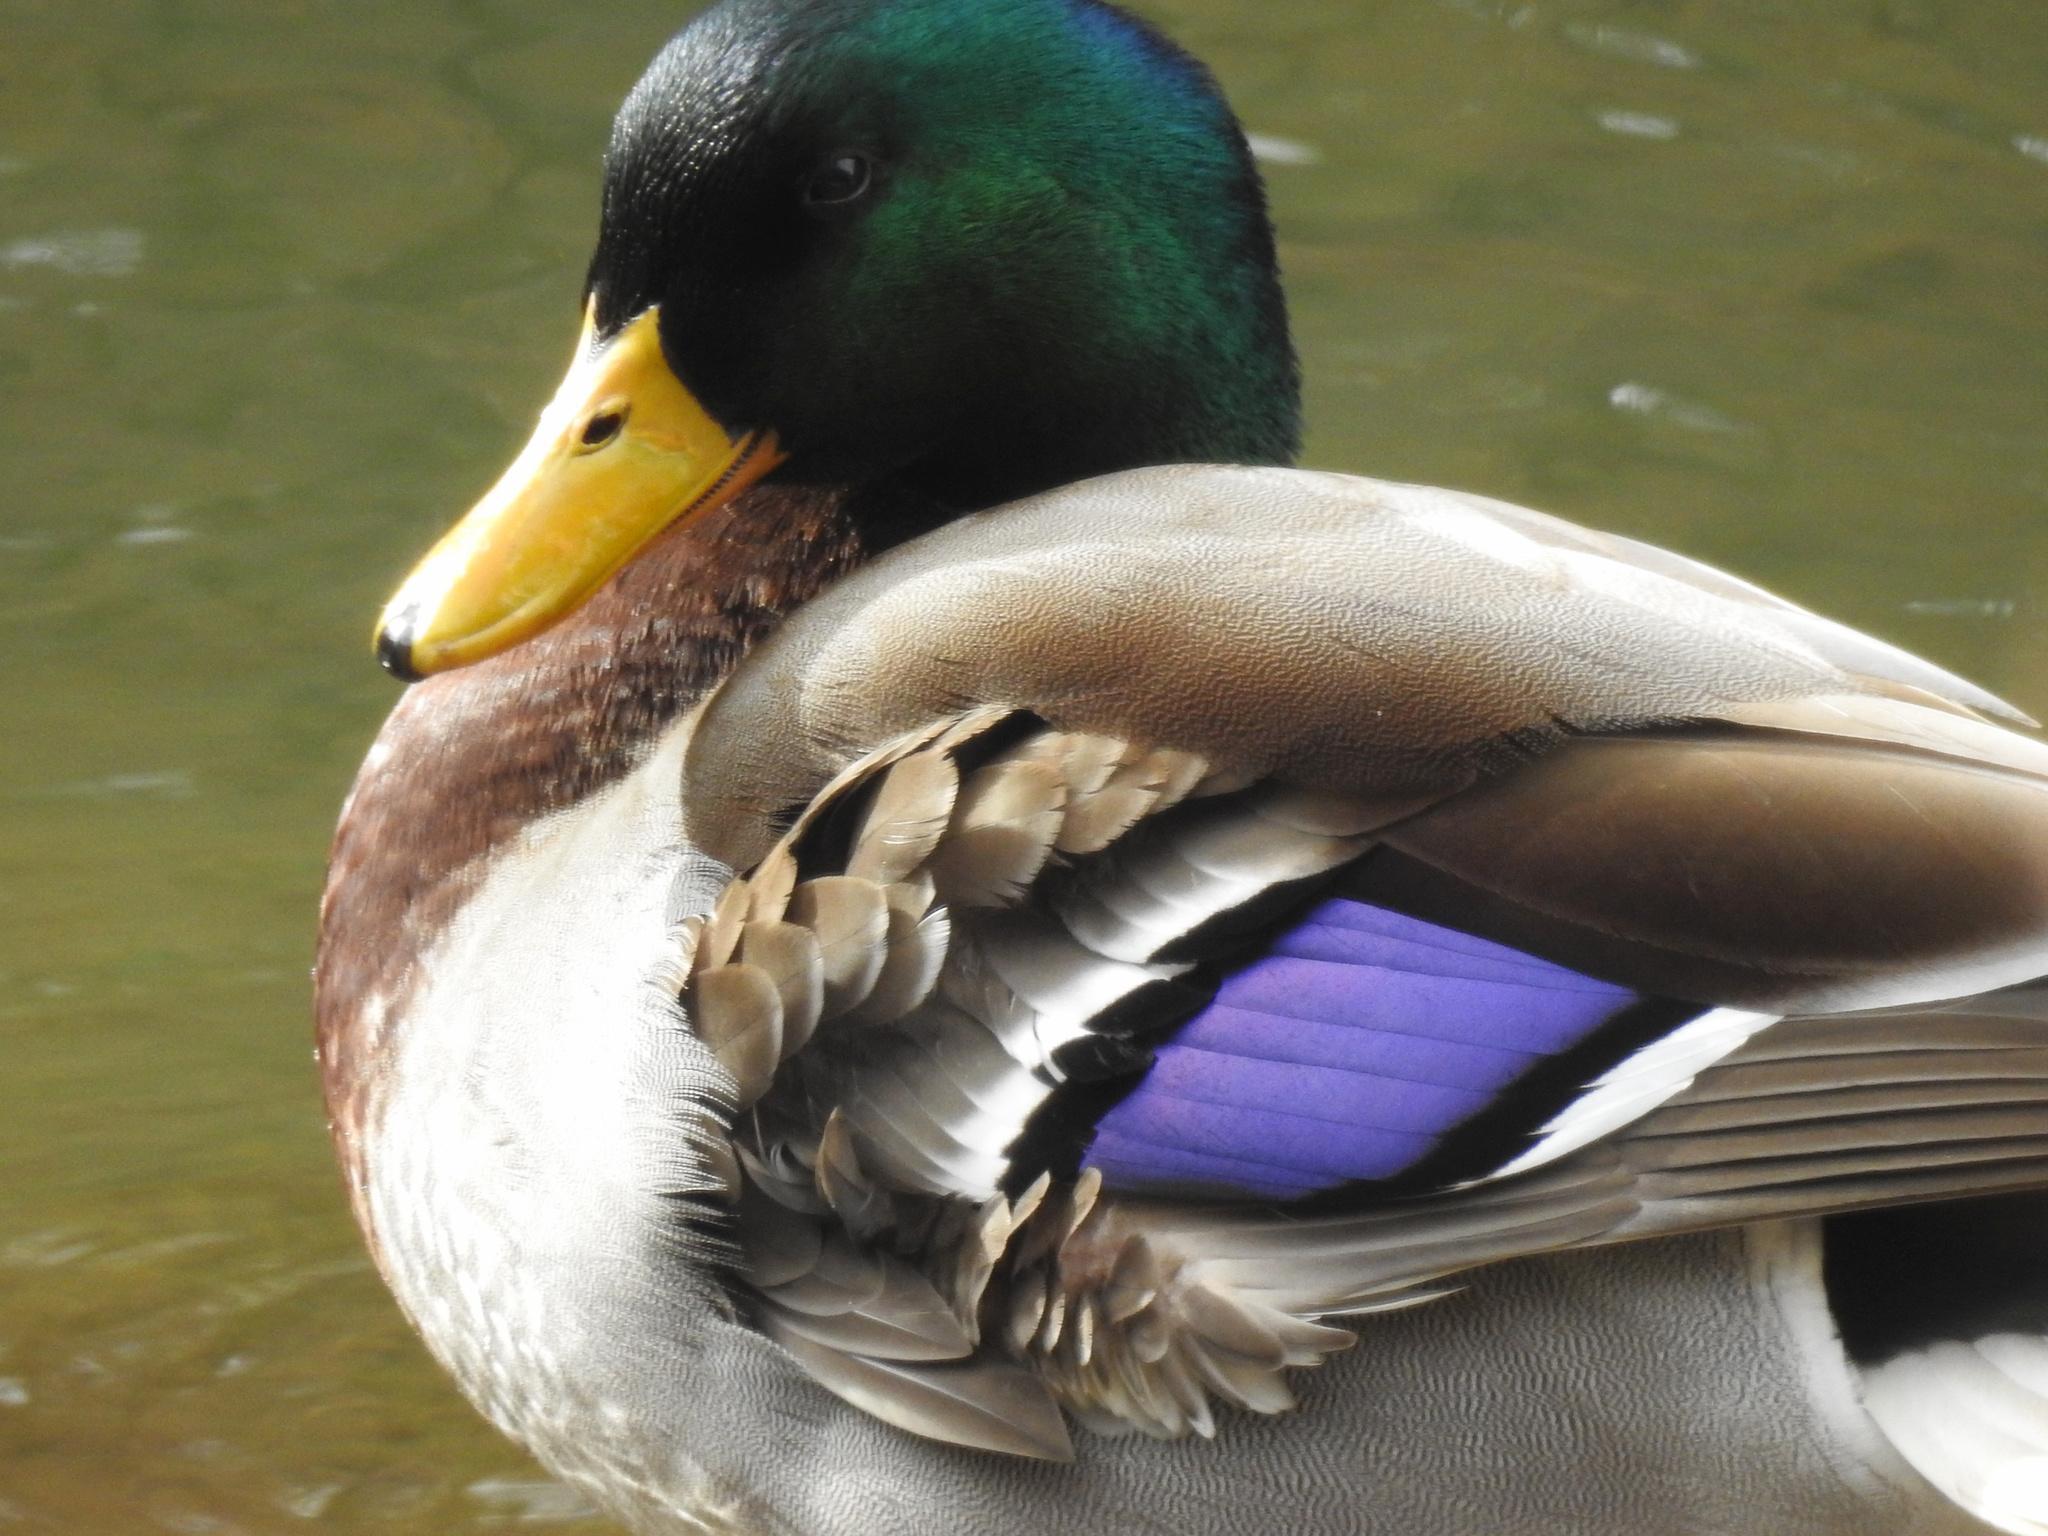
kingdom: Animalia
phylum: Chordata
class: Aves
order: Anseriformes
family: Anatidae
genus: Anas
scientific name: Anas platyrhynchos
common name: Mallard
